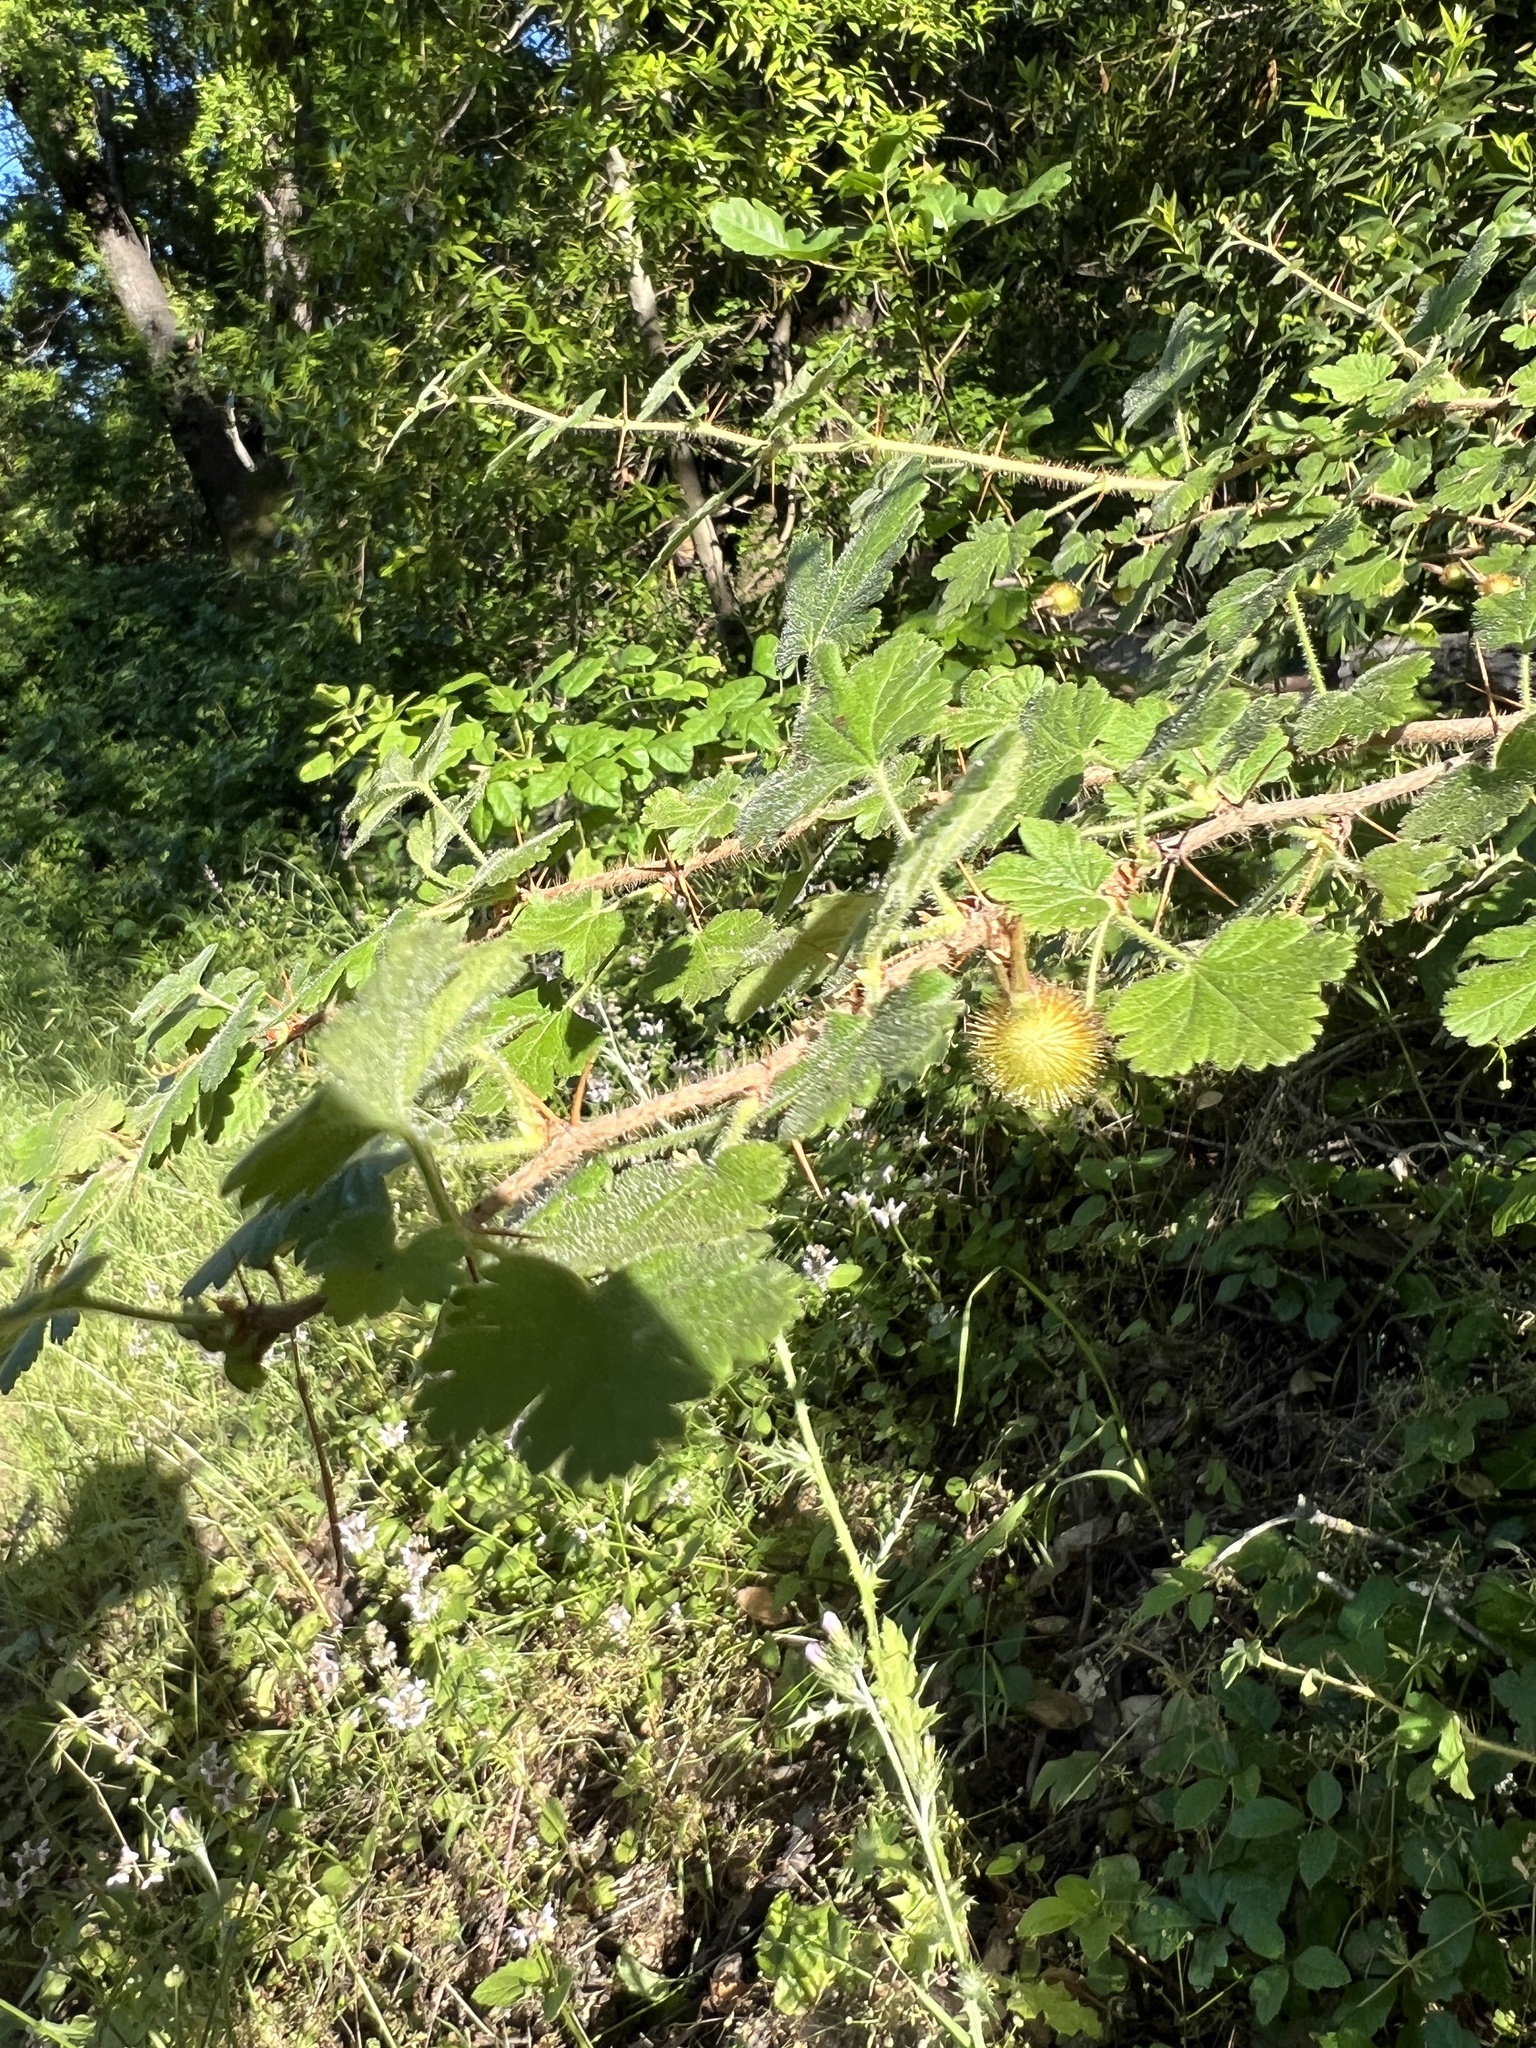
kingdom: Plantae
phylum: Tracheophyta
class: Magnoliopsida
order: Saxifragales
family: Grossulariaceae
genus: Ribes
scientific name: Ribes menziesii
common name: Canyon gooseberry
